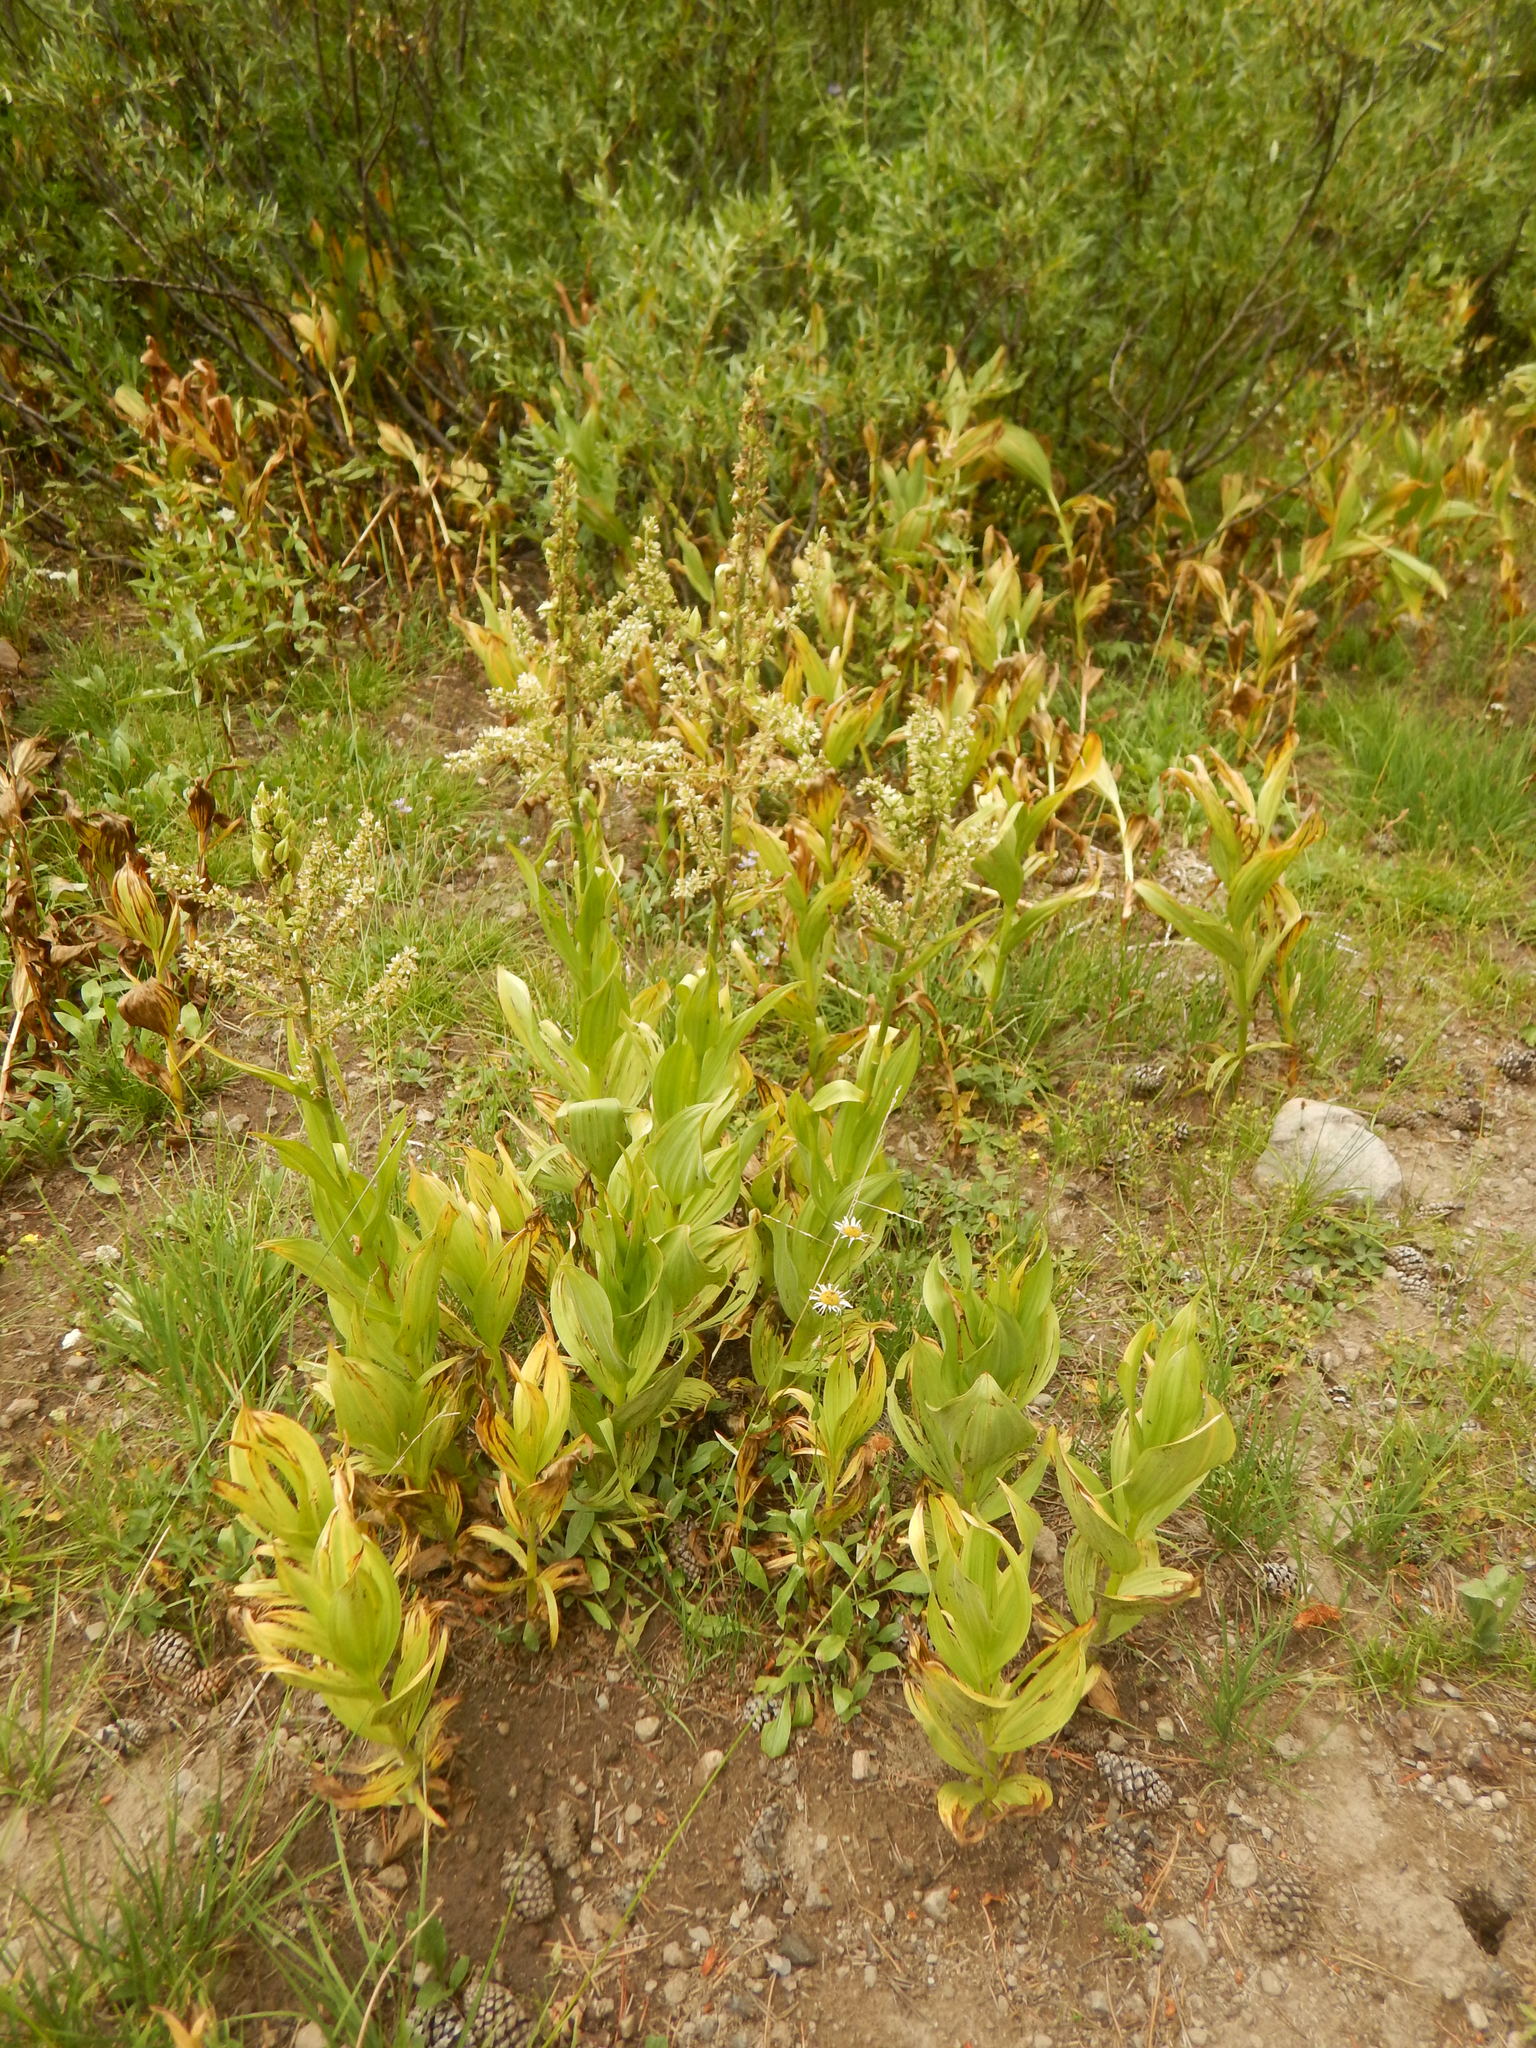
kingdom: Plantae
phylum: Tracheophyta
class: Liliopsida
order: Liliales
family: Melanthiaceae
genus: Veratrum
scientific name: Veratrum californicum
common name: California veratrum
